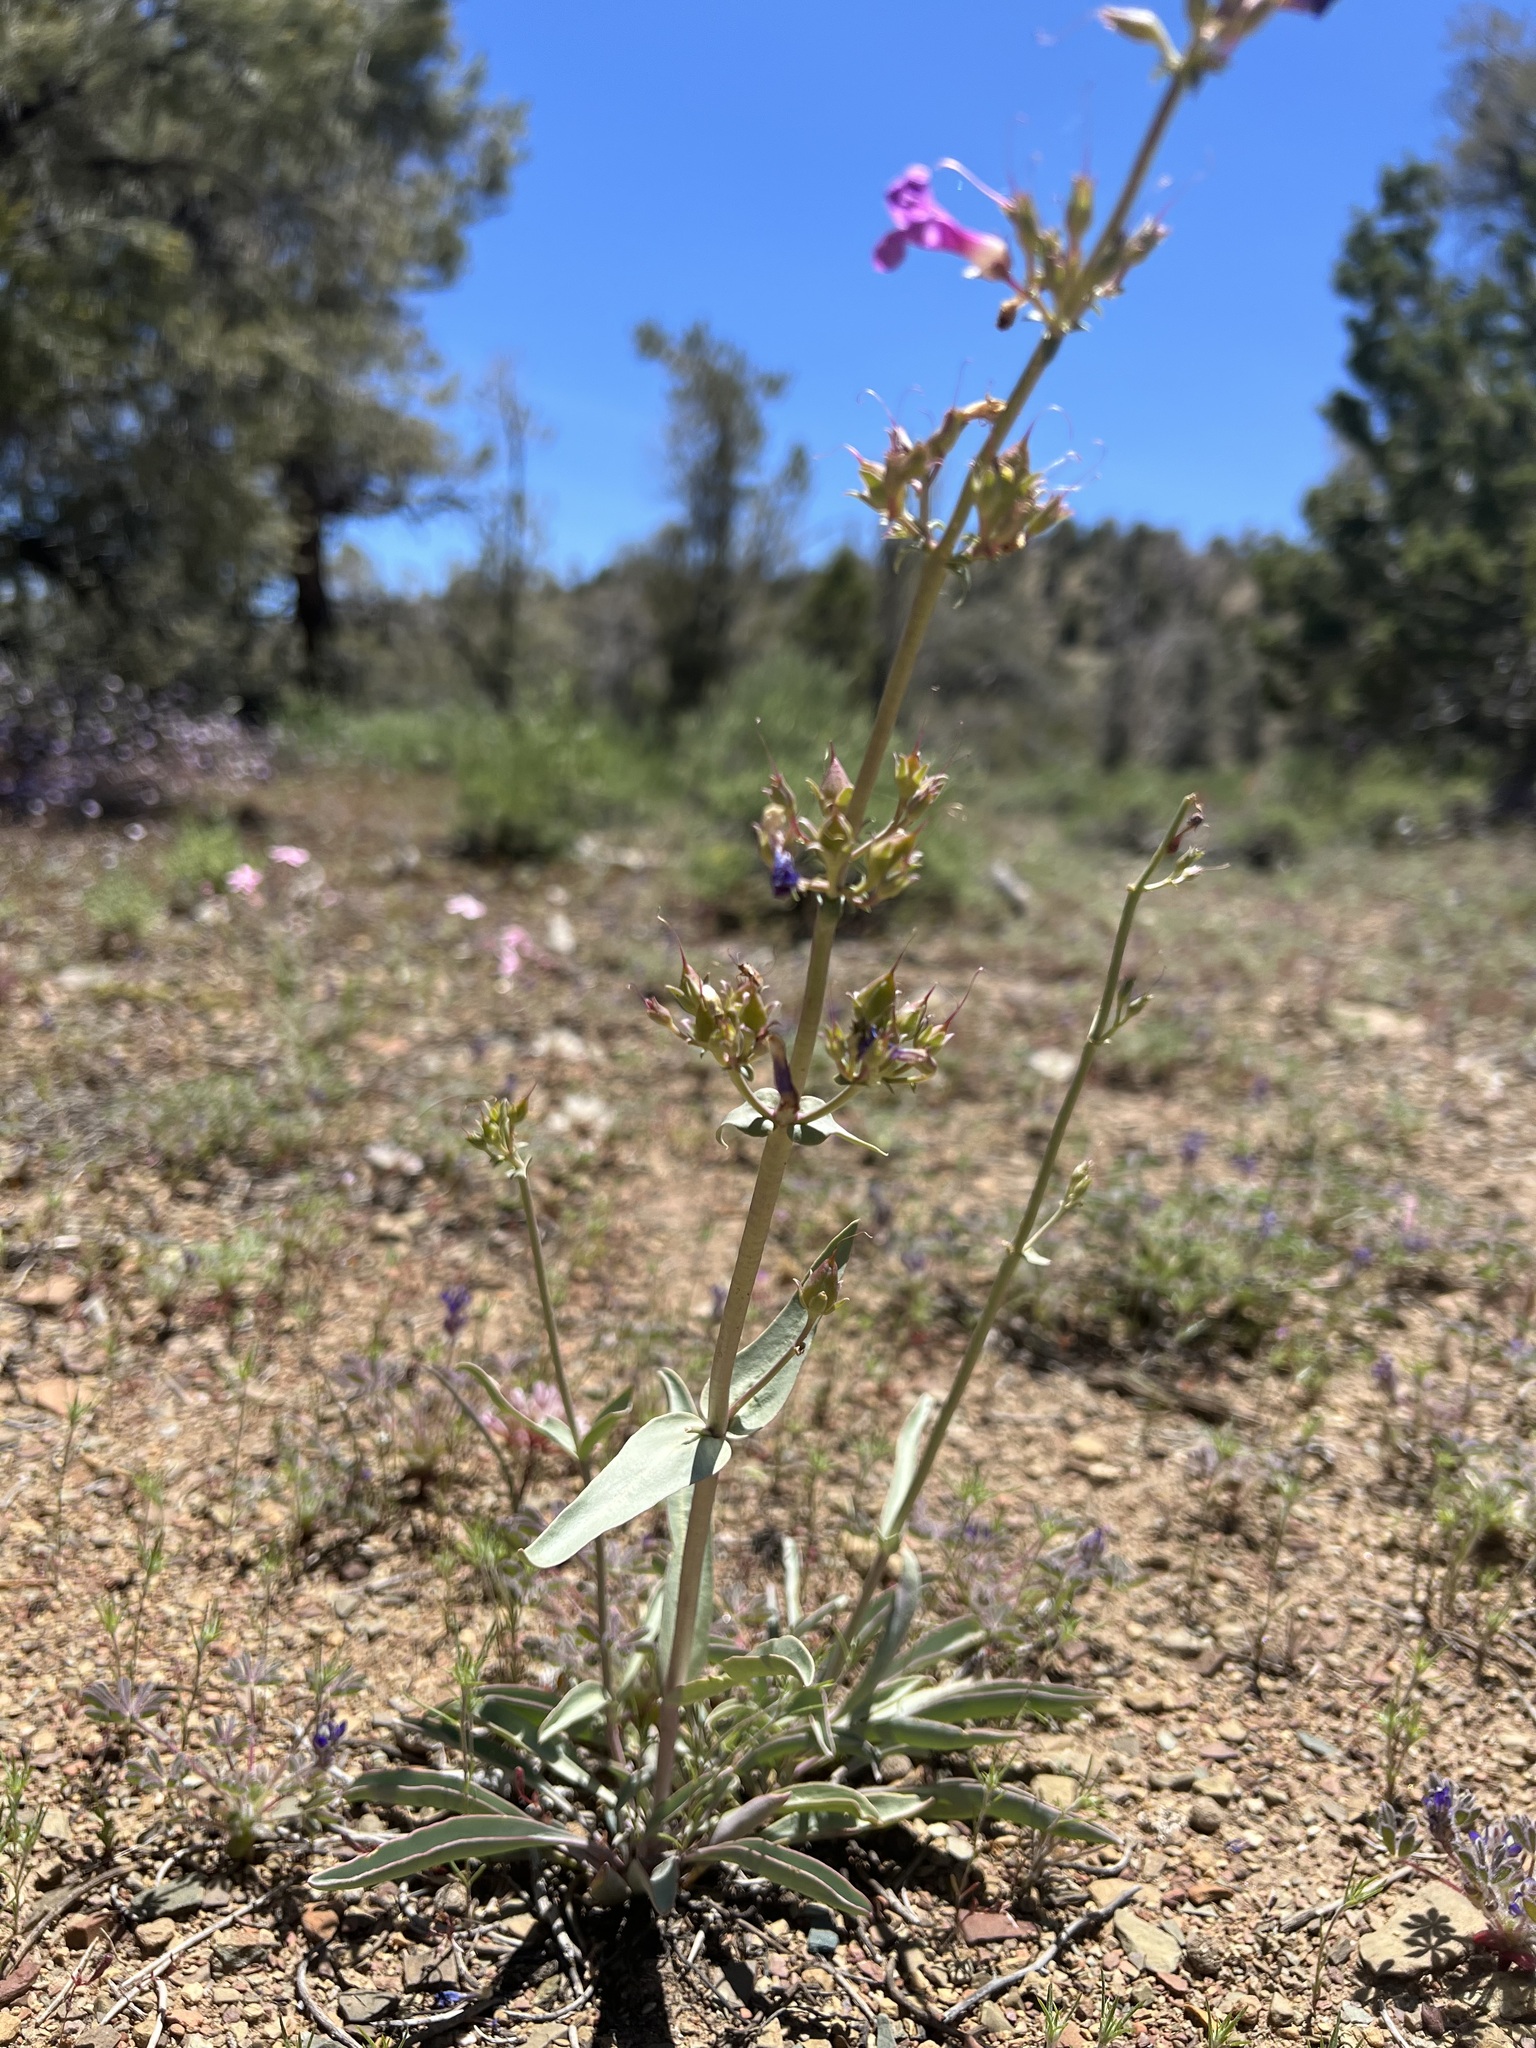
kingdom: Plantae
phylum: Tracheophyta
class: Magnoliopsida
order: Lamiales
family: Plantaginaceae
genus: Penstemon
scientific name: Penstemon patens
